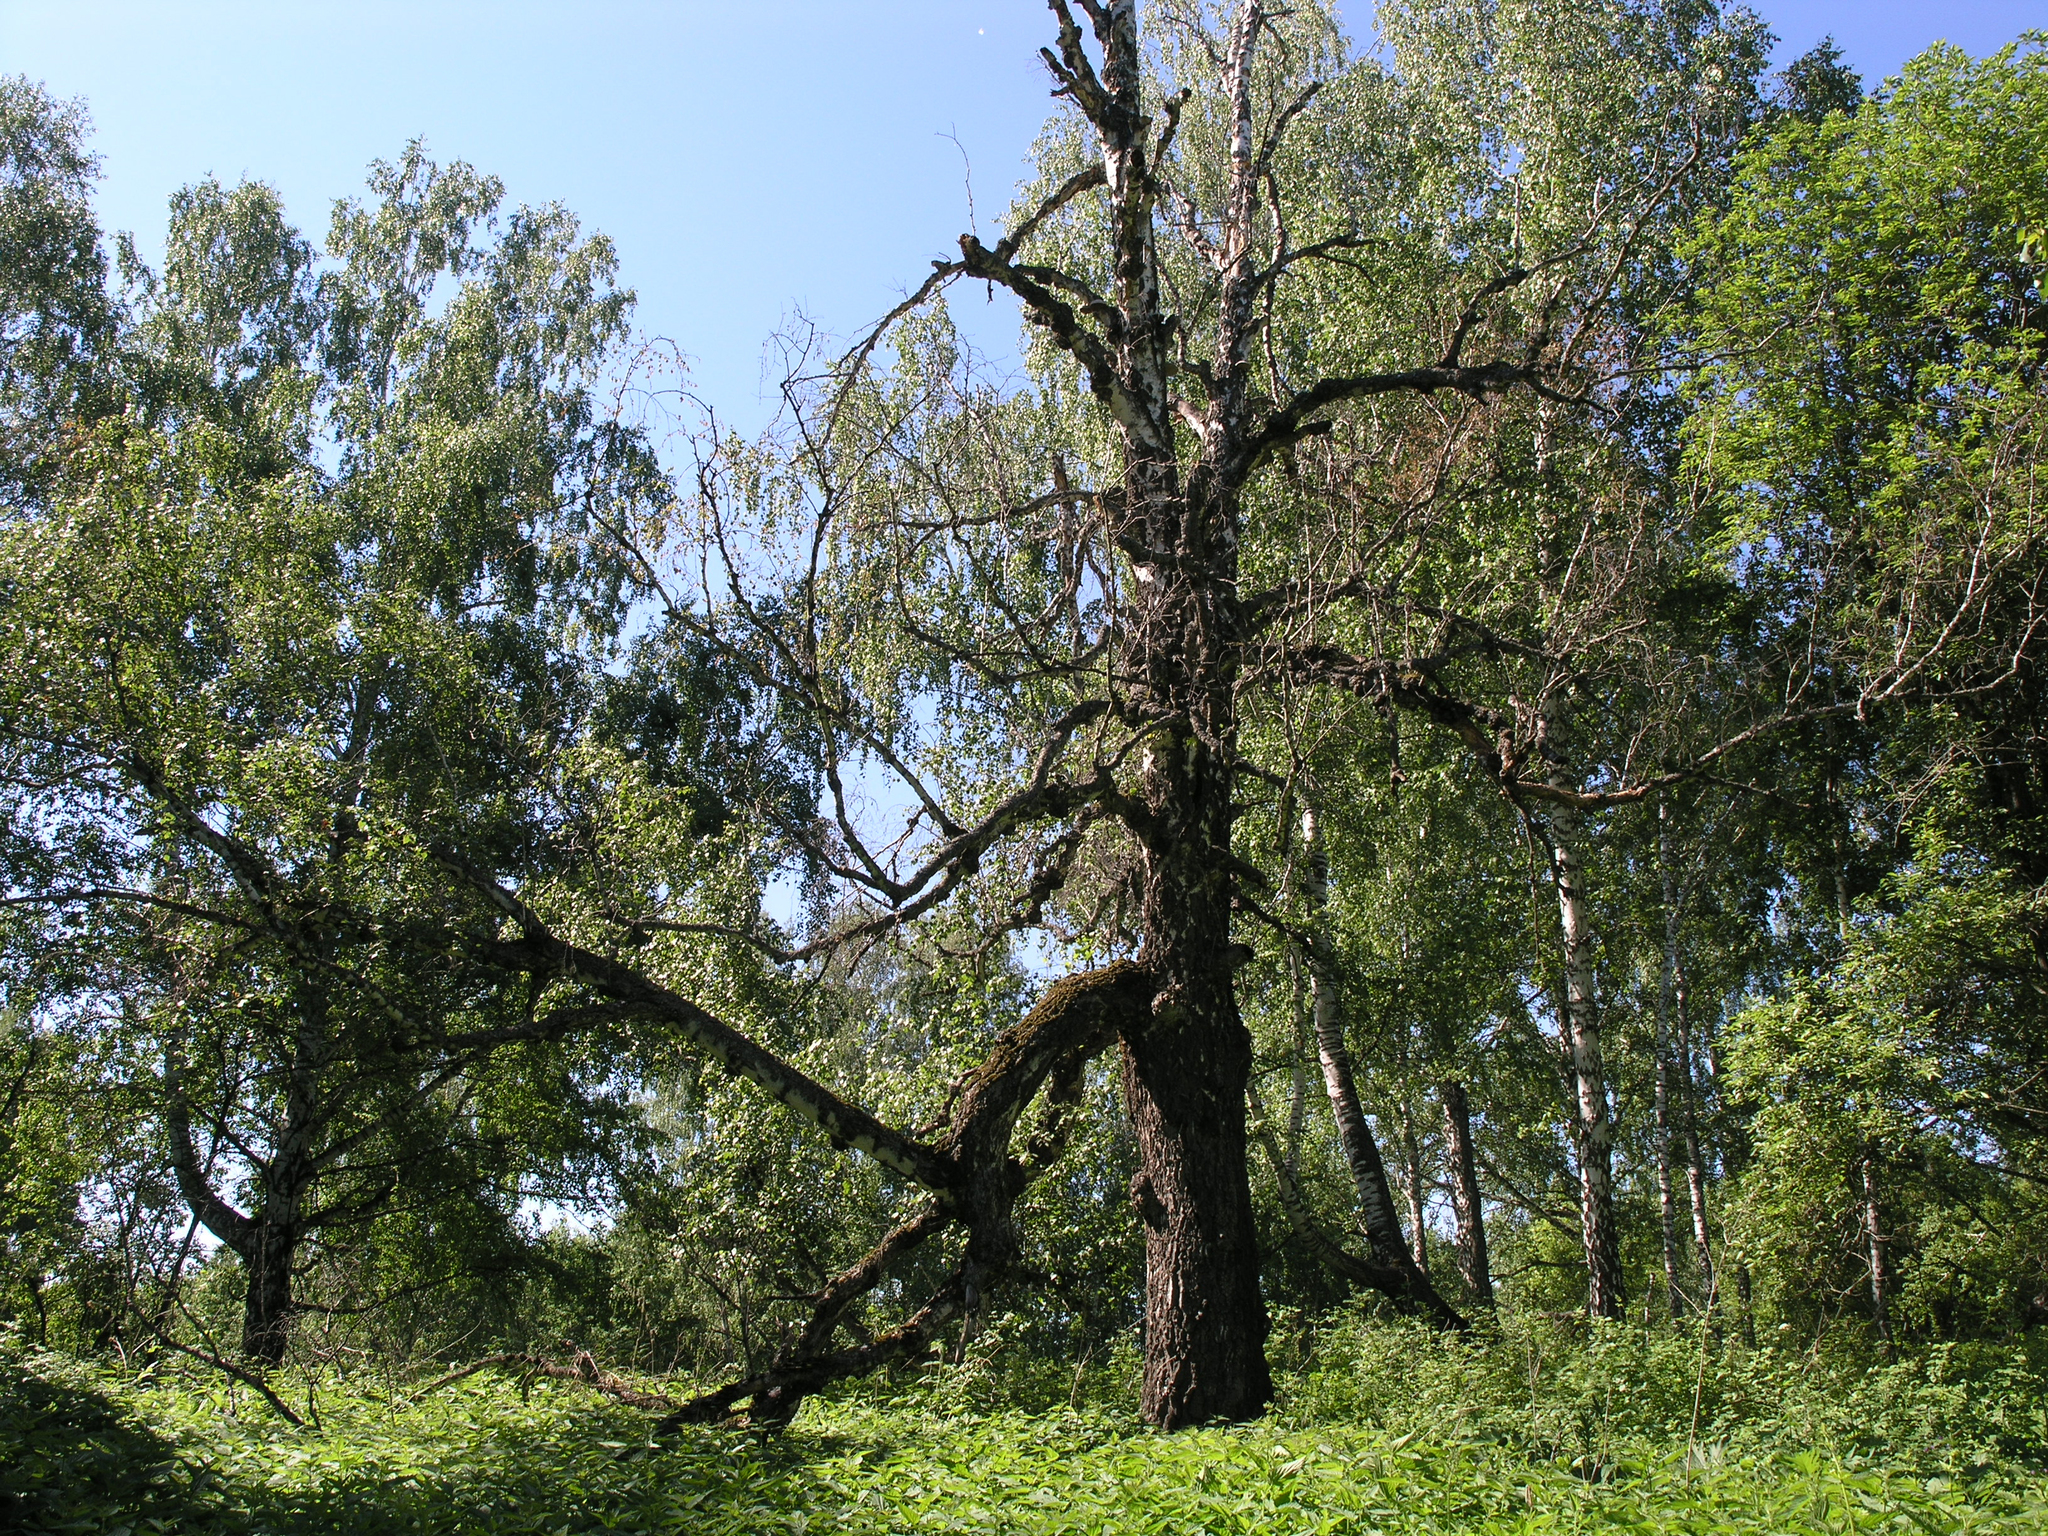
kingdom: Plantae
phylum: Tracheophyta
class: Magnoliopsida
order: Fagales
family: Betulaceae
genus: Betula
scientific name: Betula pendula
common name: Silver birch
